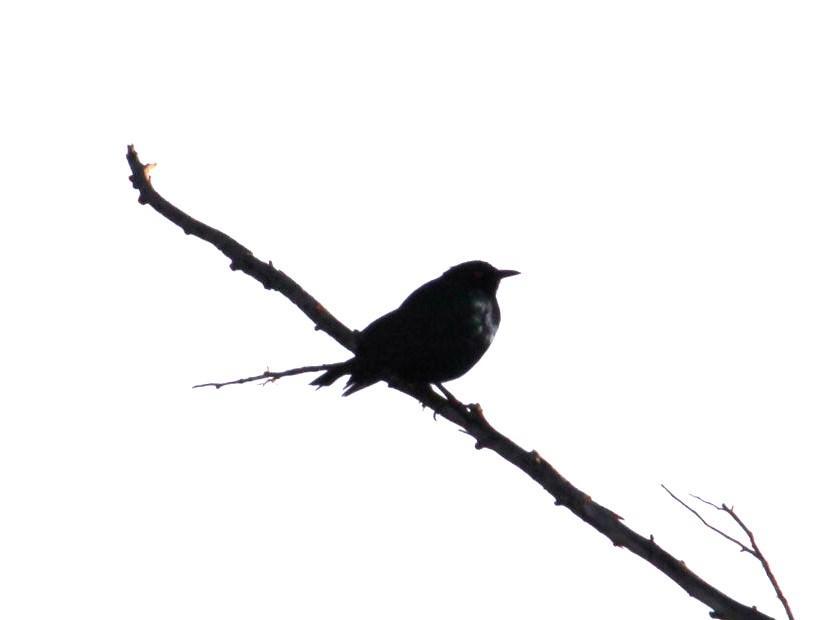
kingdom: Animalia
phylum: Chordata
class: Aves
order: Passeriformes
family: Sturnidae
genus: Notopholia
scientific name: Notopholia corrusca
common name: Black-bellied starling
